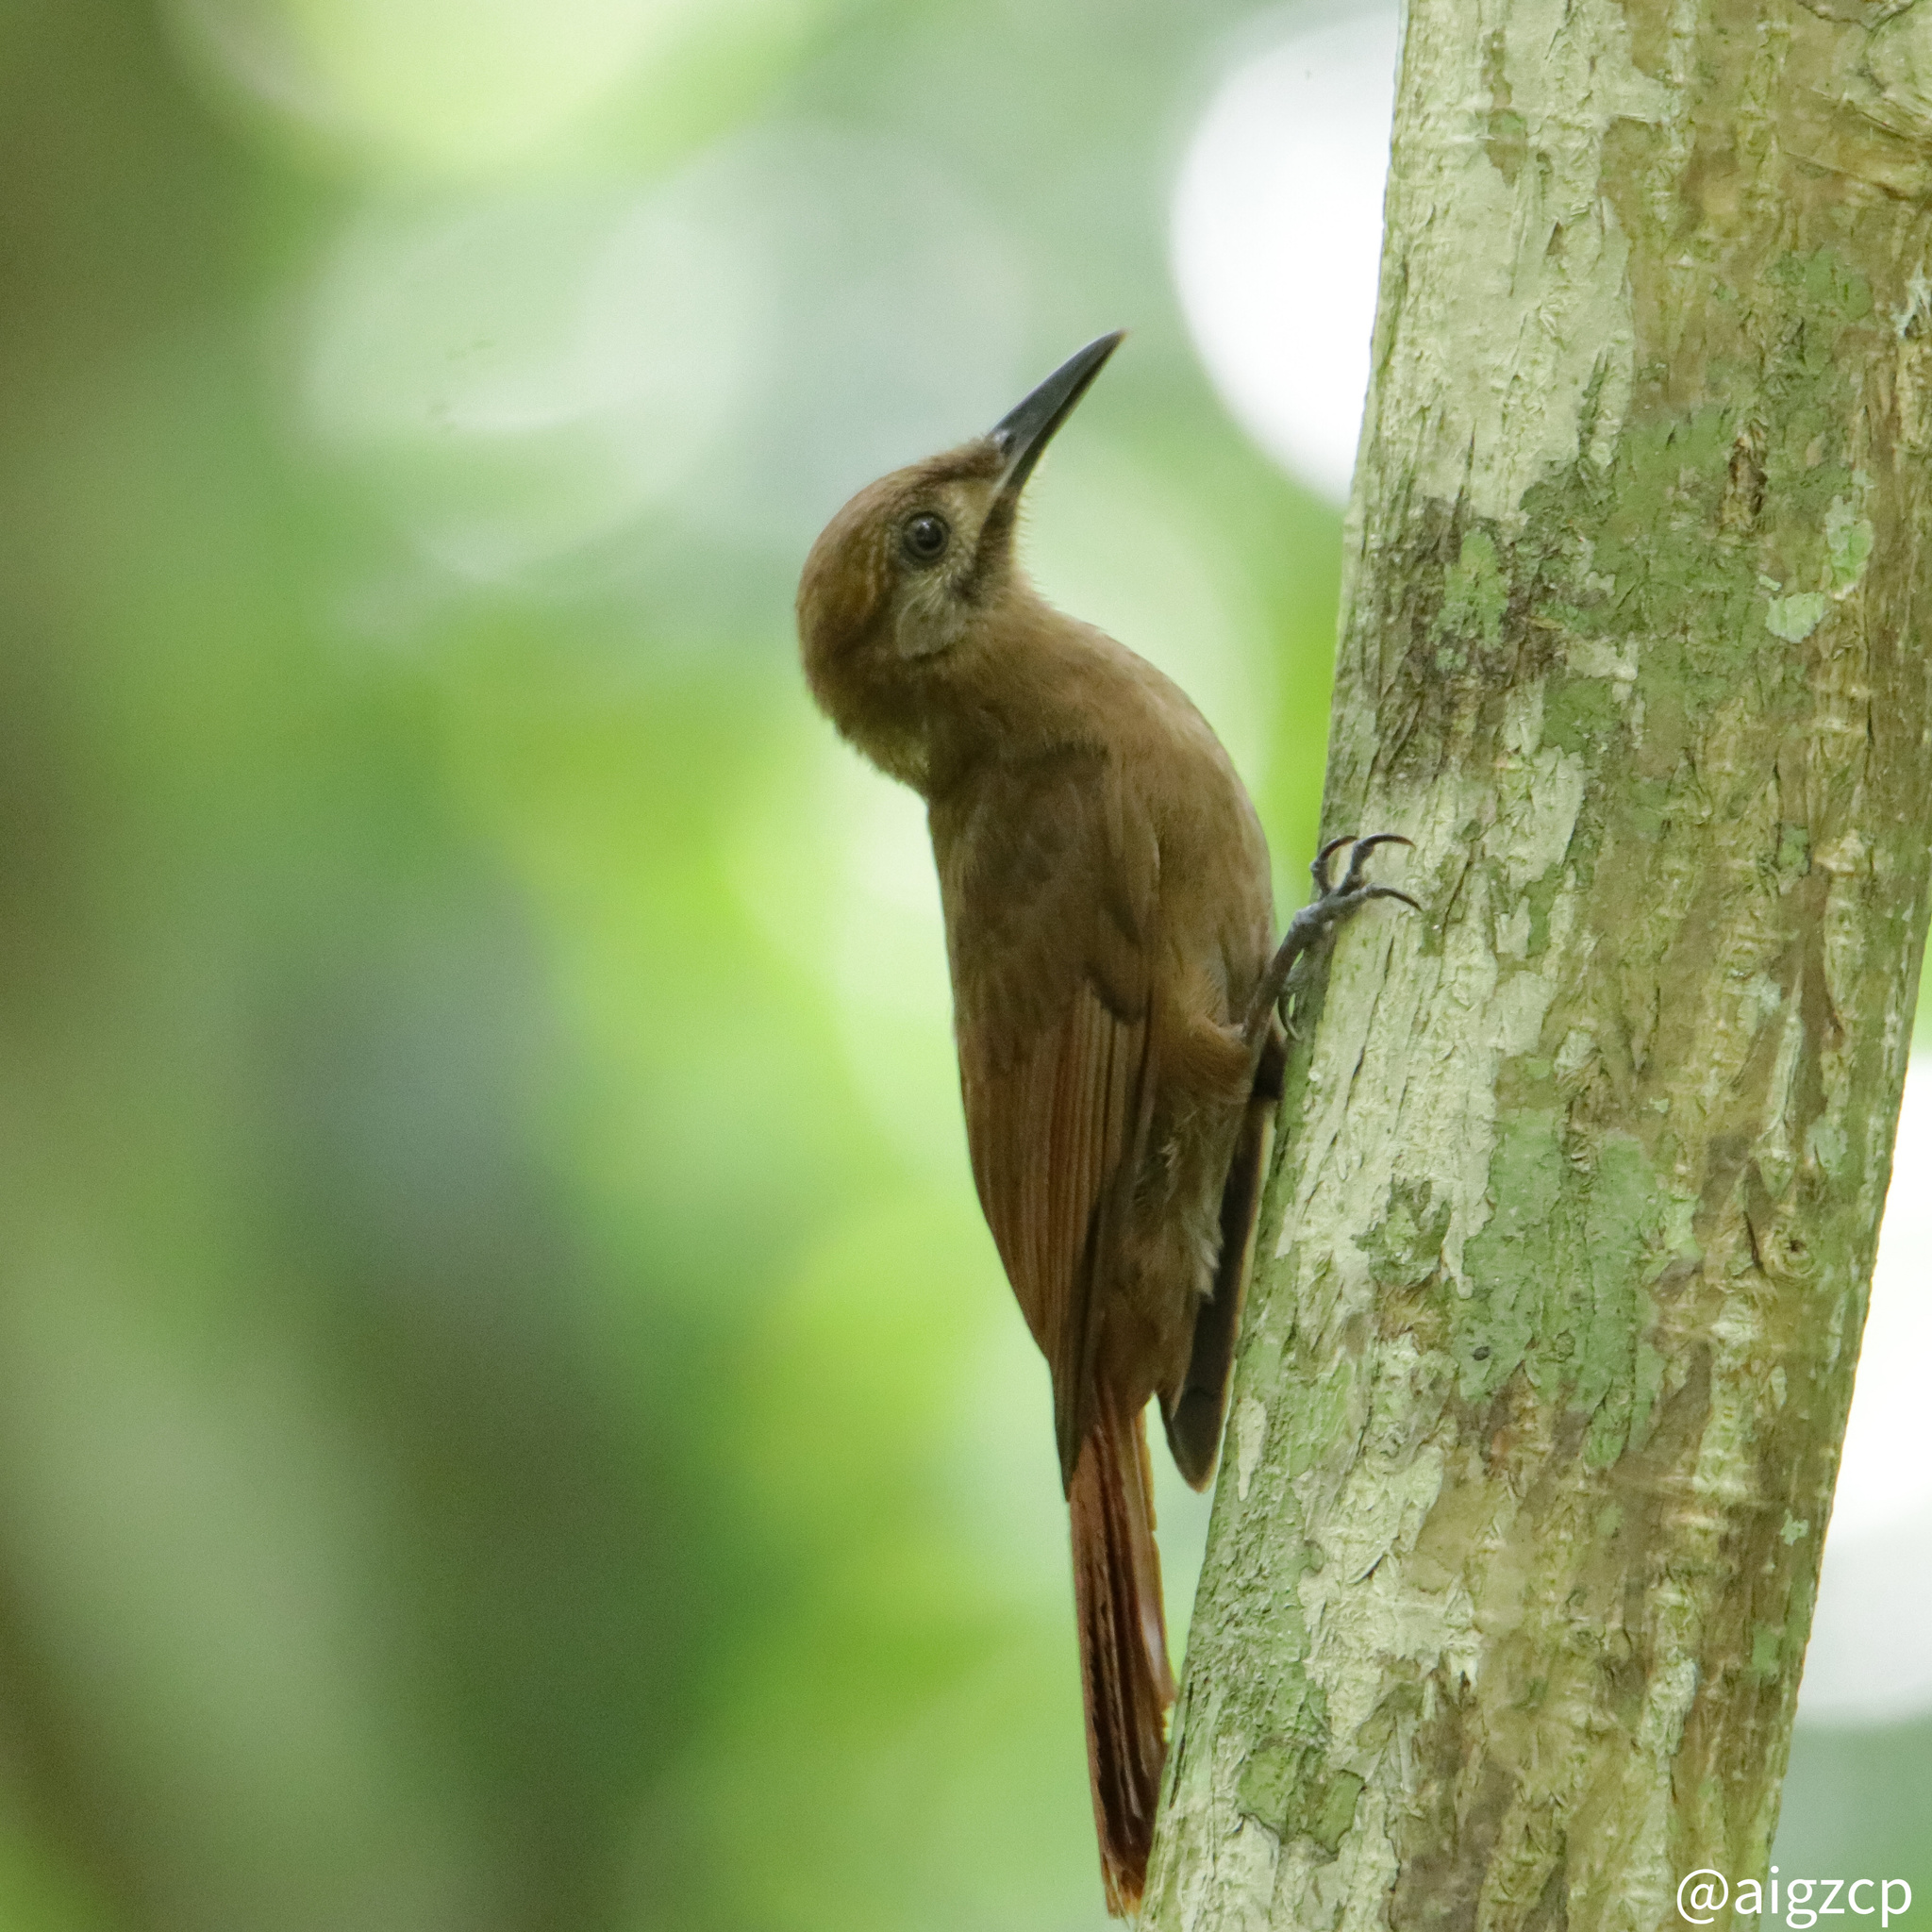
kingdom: Animalia
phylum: Chordata
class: Aves
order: Passeriformes
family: Furnariidae
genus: Dendrocincla
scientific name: Dendrocincla fuliginosa
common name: Plain-brown woodcreeper
